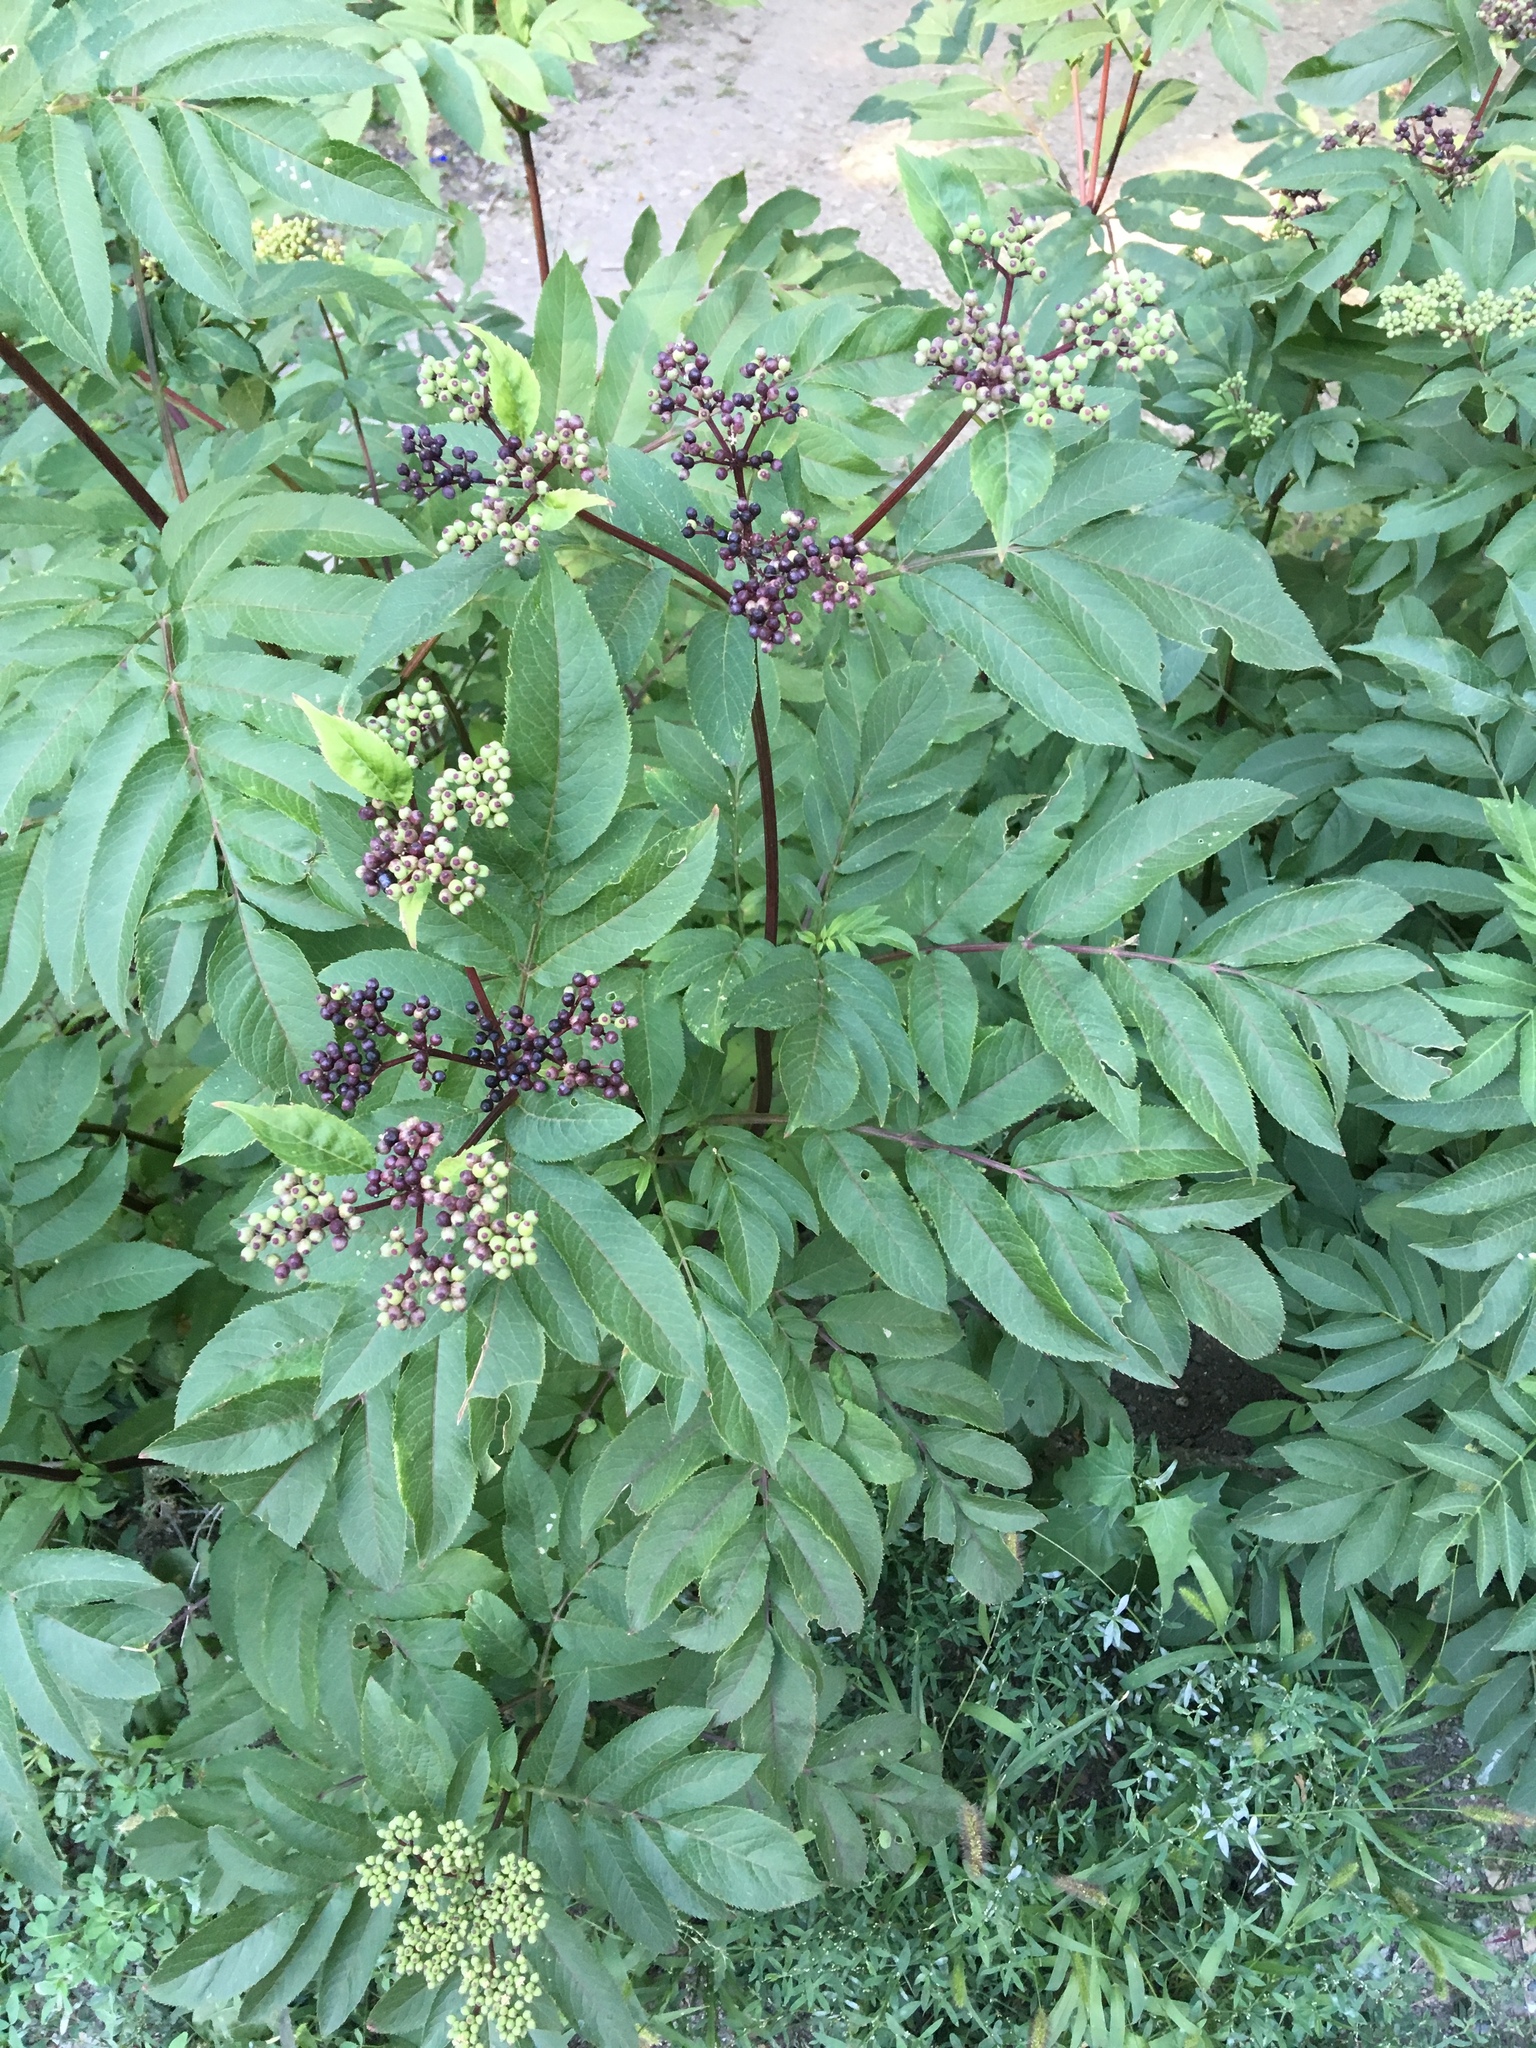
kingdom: Plantae
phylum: Tracheophyta
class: Magnoliopsida
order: Dipsacales
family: Viburnaceae
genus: Sambucus
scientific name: Sambucus ebulus
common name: Dwarf elder
